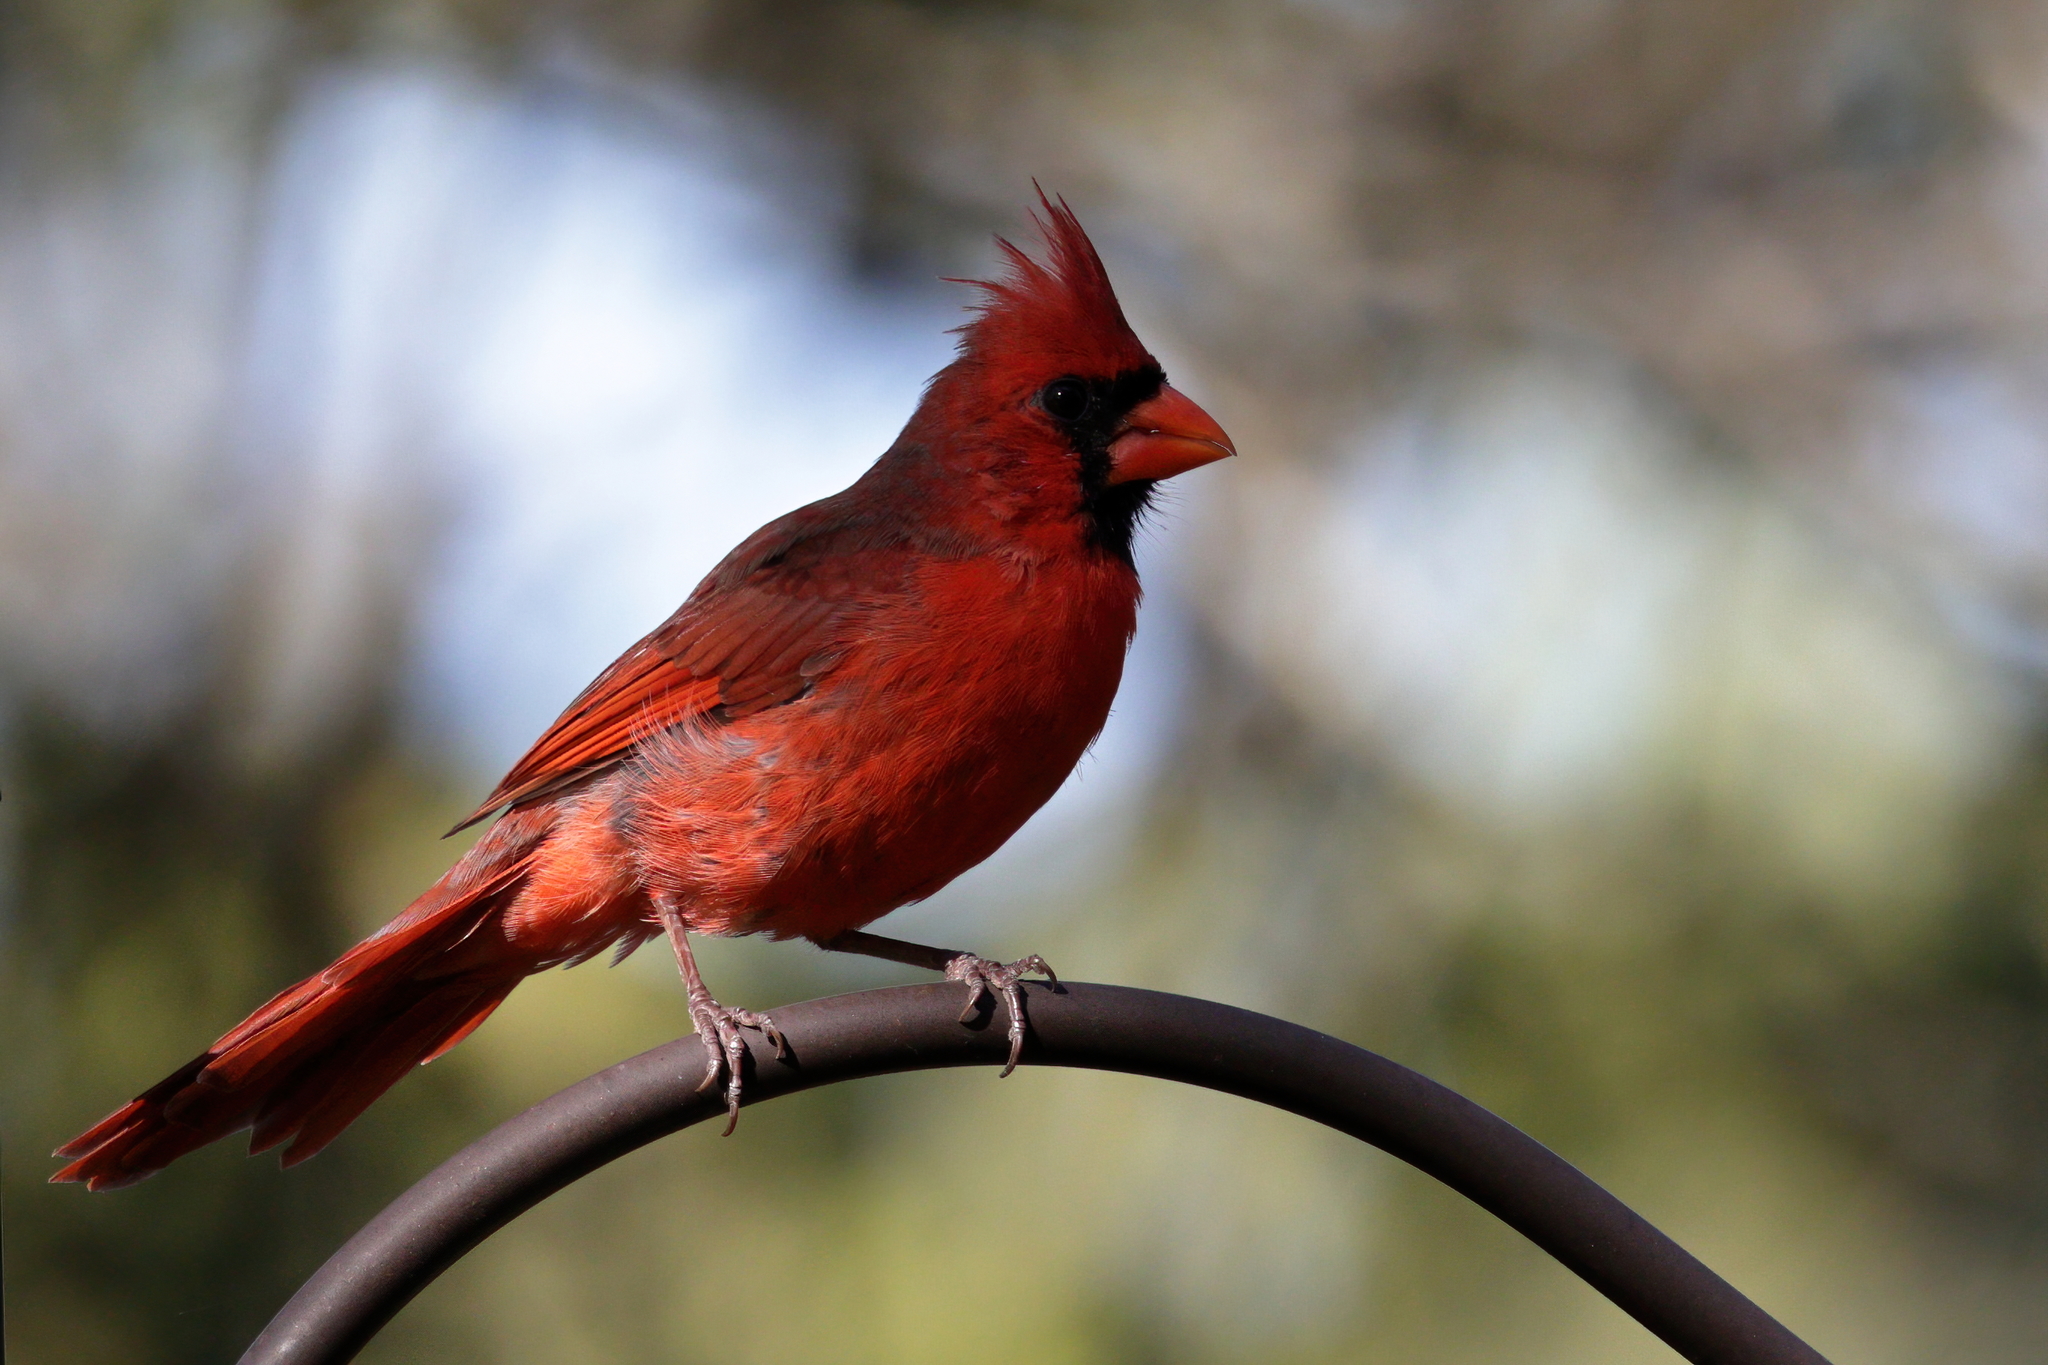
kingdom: Animalia
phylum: Chordata
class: Aves
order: Passeriformes
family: Cardinalidae
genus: Cardinalis
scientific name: Cardinalis cardinalis
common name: Northern cardinal
